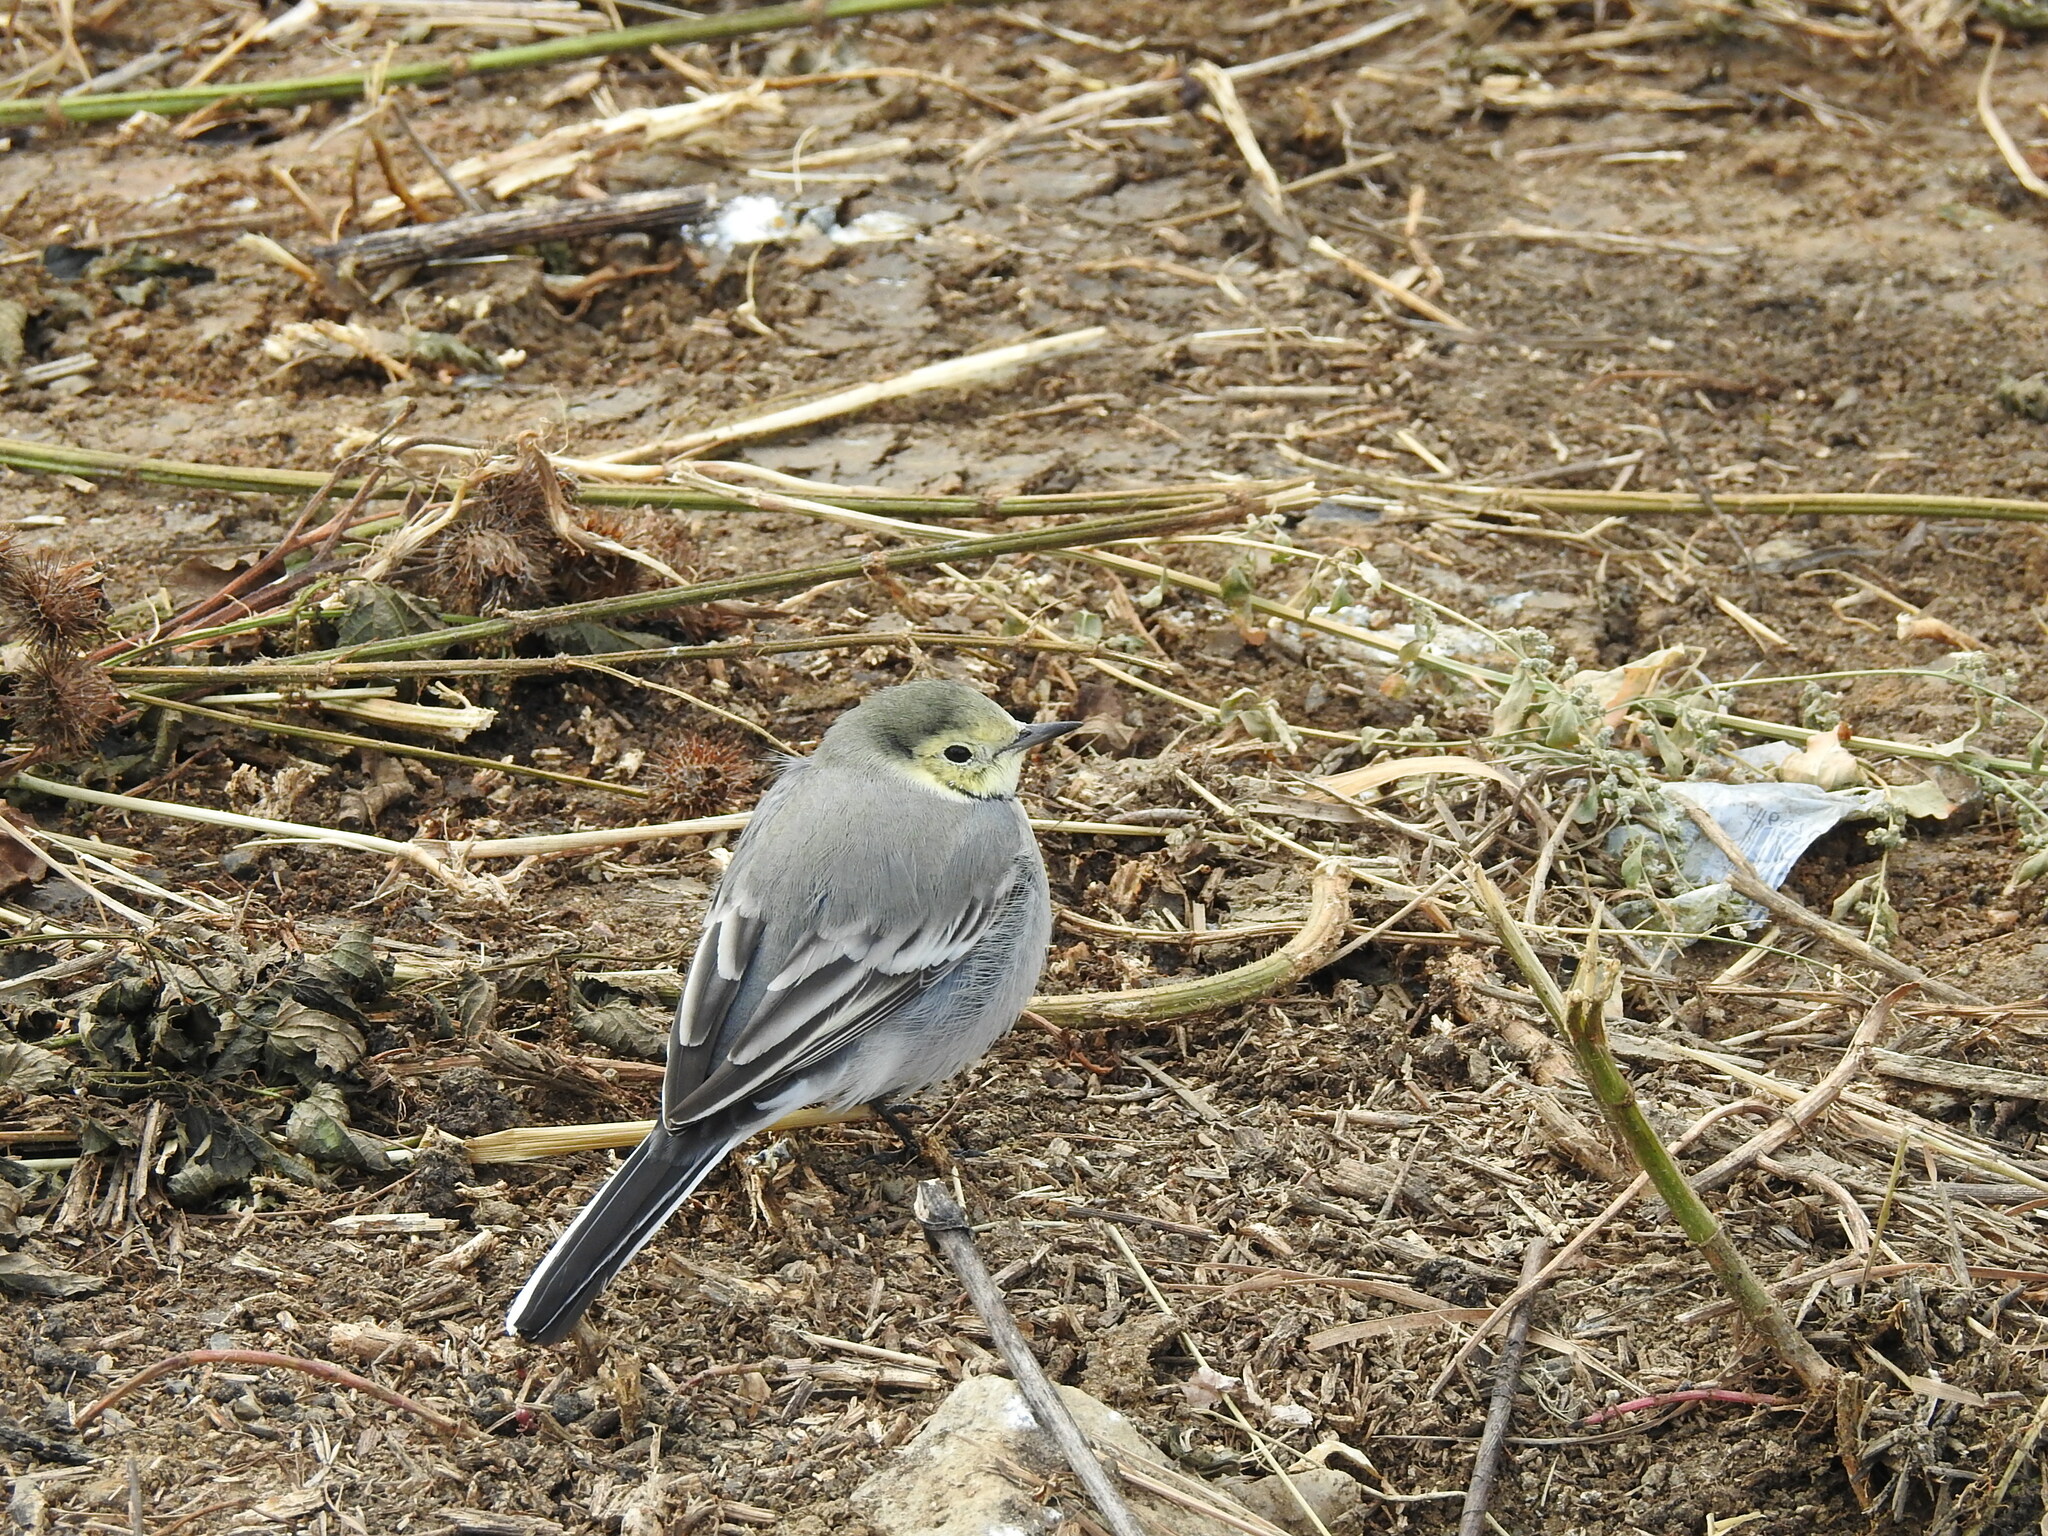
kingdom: Animalia
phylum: Chordata
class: Aves
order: Passeriformes
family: Motacillidae
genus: Motacilla
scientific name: Motacilla alba
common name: White wagtail
